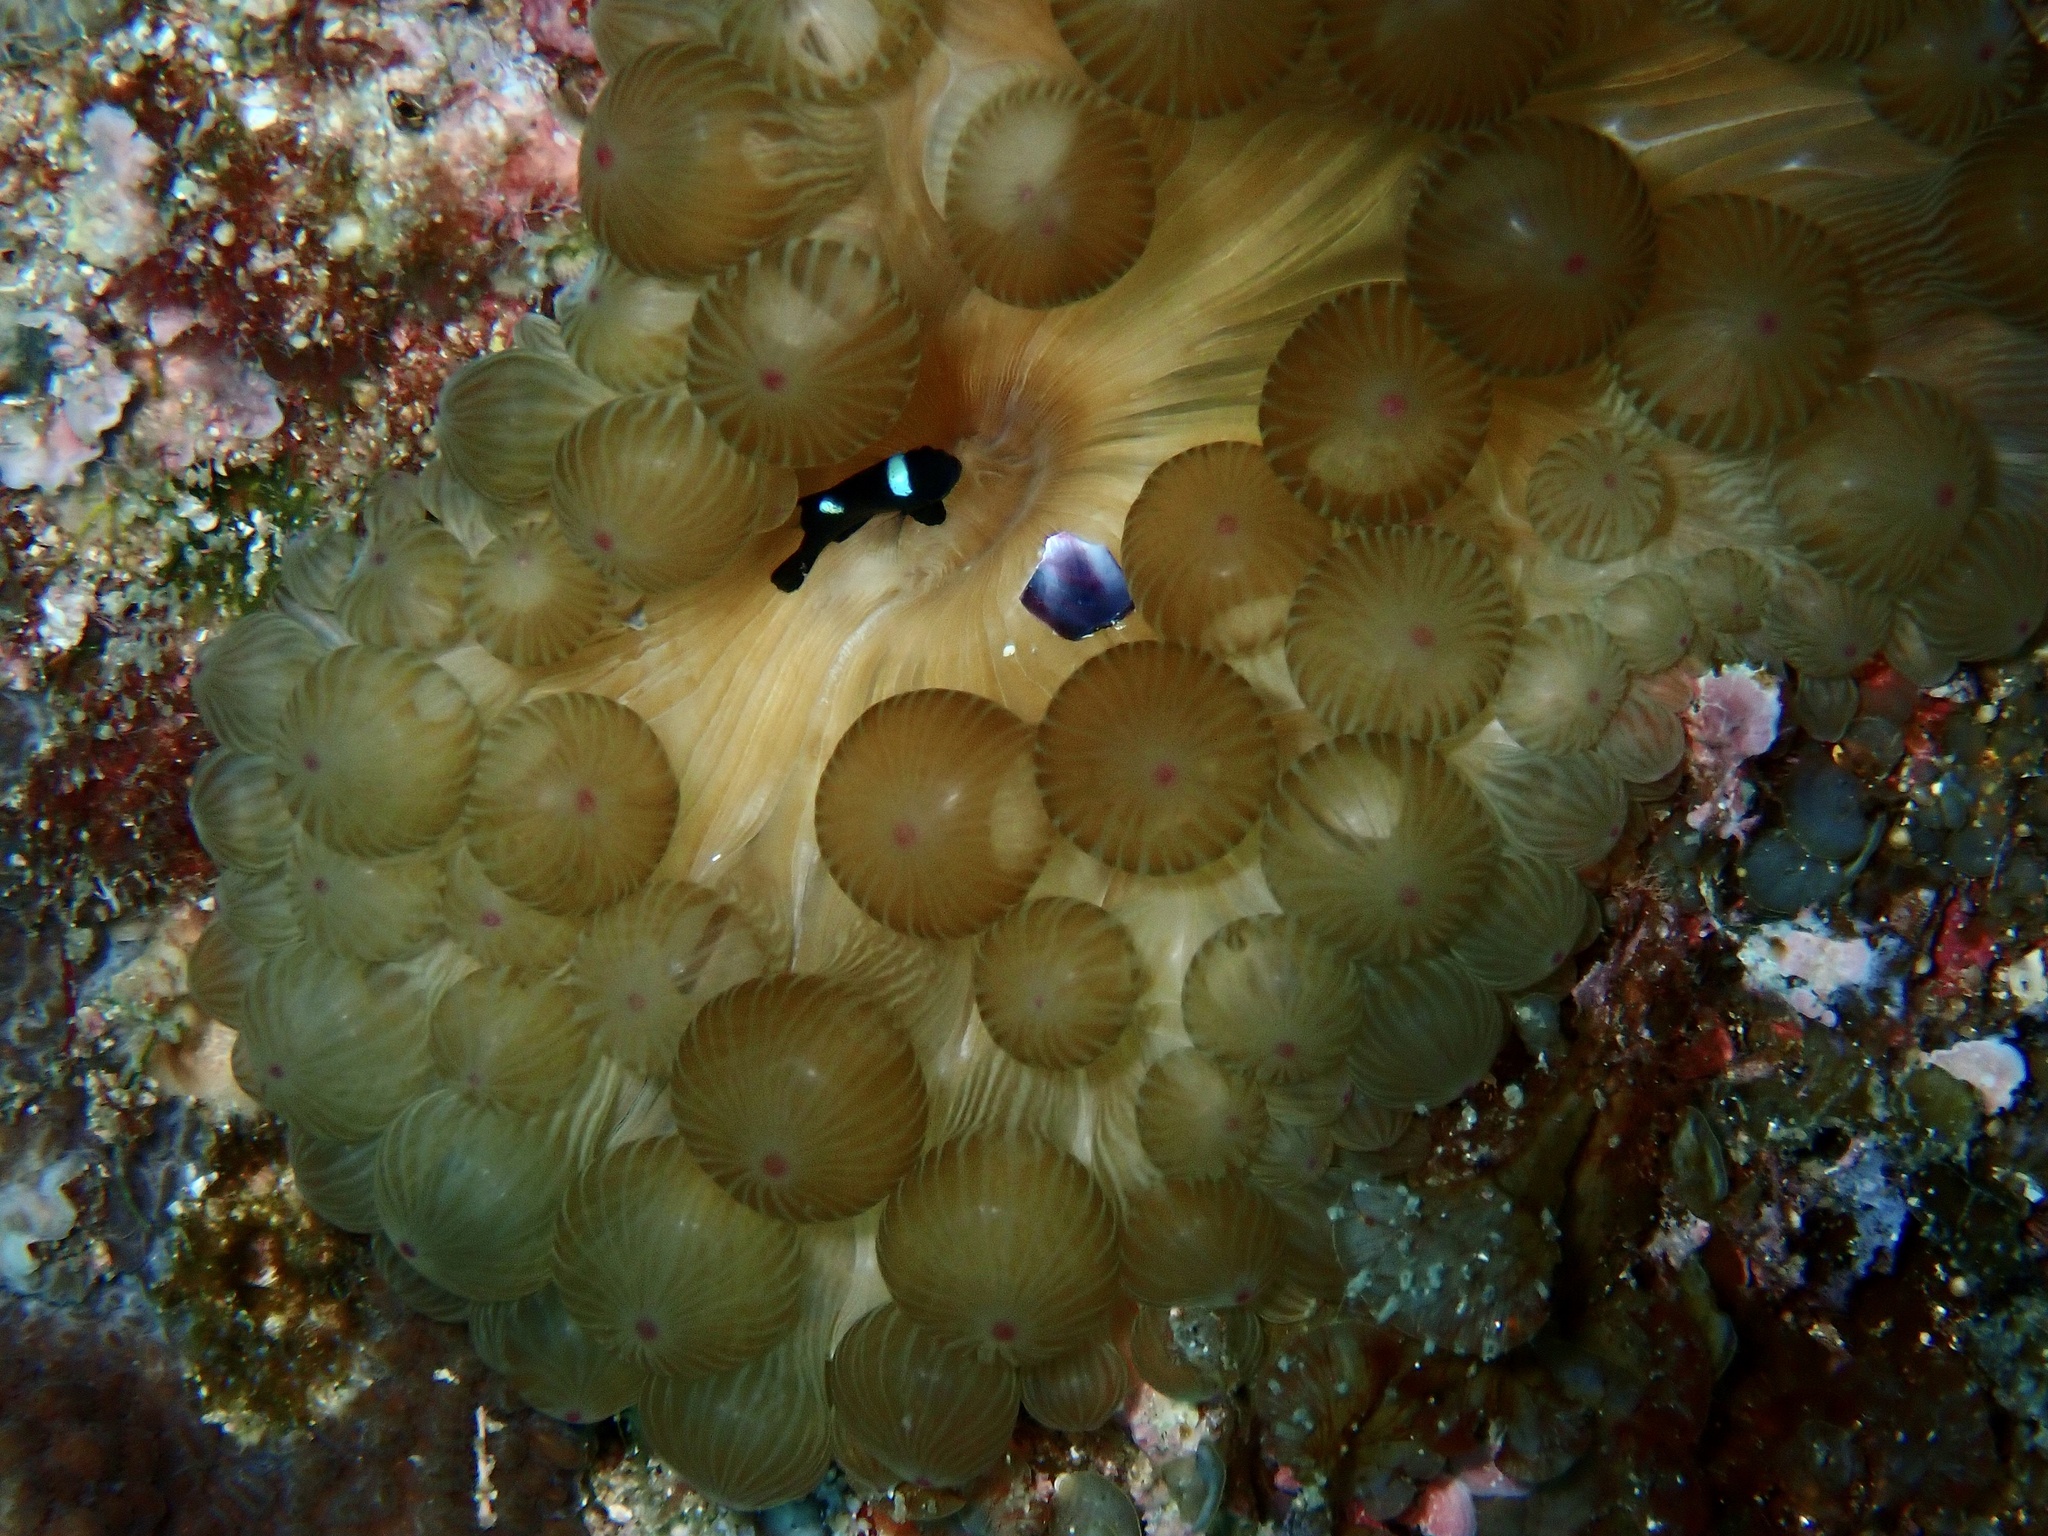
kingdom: Animalia
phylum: Cnidaria
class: Anthozoa
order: Actiniaria
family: Actiniidae
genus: Entacmaea
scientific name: Entacmaea quadricolor
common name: Bulb tentacle sea anemone
